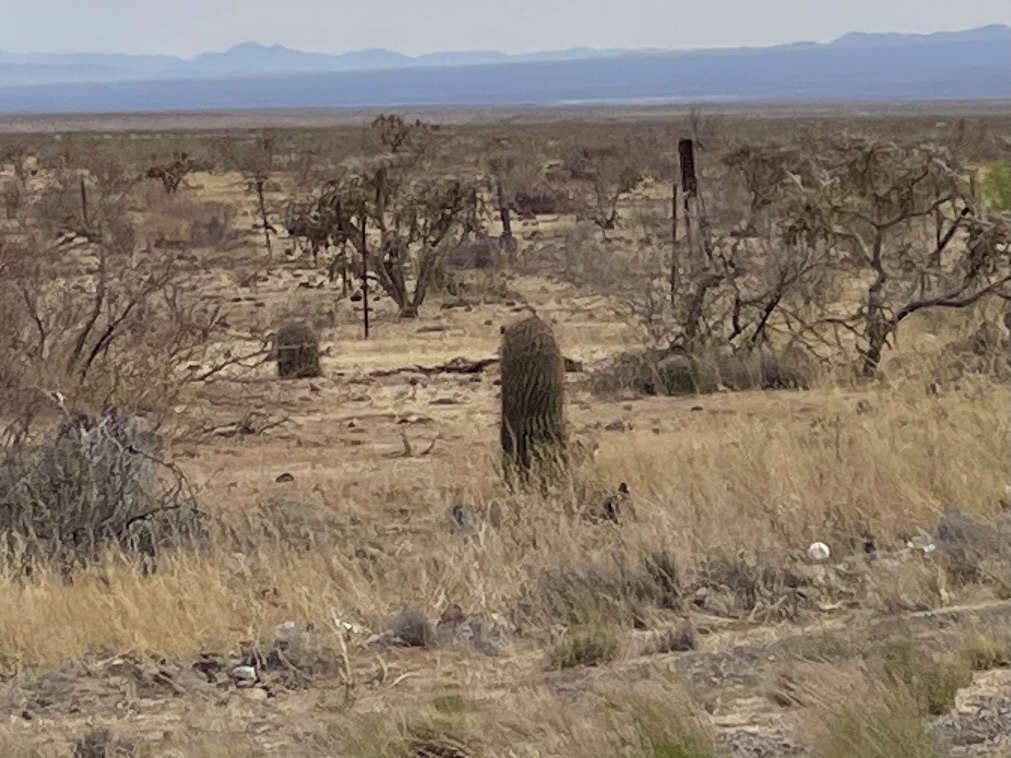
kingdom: Plantae
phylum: Tracheophyta
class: Magnoliopsida
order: Caryophyllales
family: Cactaceae
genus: Ferocactus
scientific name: Ferocactus wislizeni
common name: Candy barrel cactus
